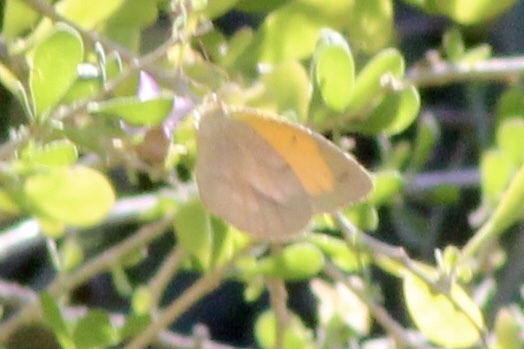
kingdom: Animalia
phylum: Arthropoda
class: Insecta
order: Lepidoptera
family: Pieridae
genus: Abaeis
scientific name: Abaeis nicippe
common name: Sleepy orange
